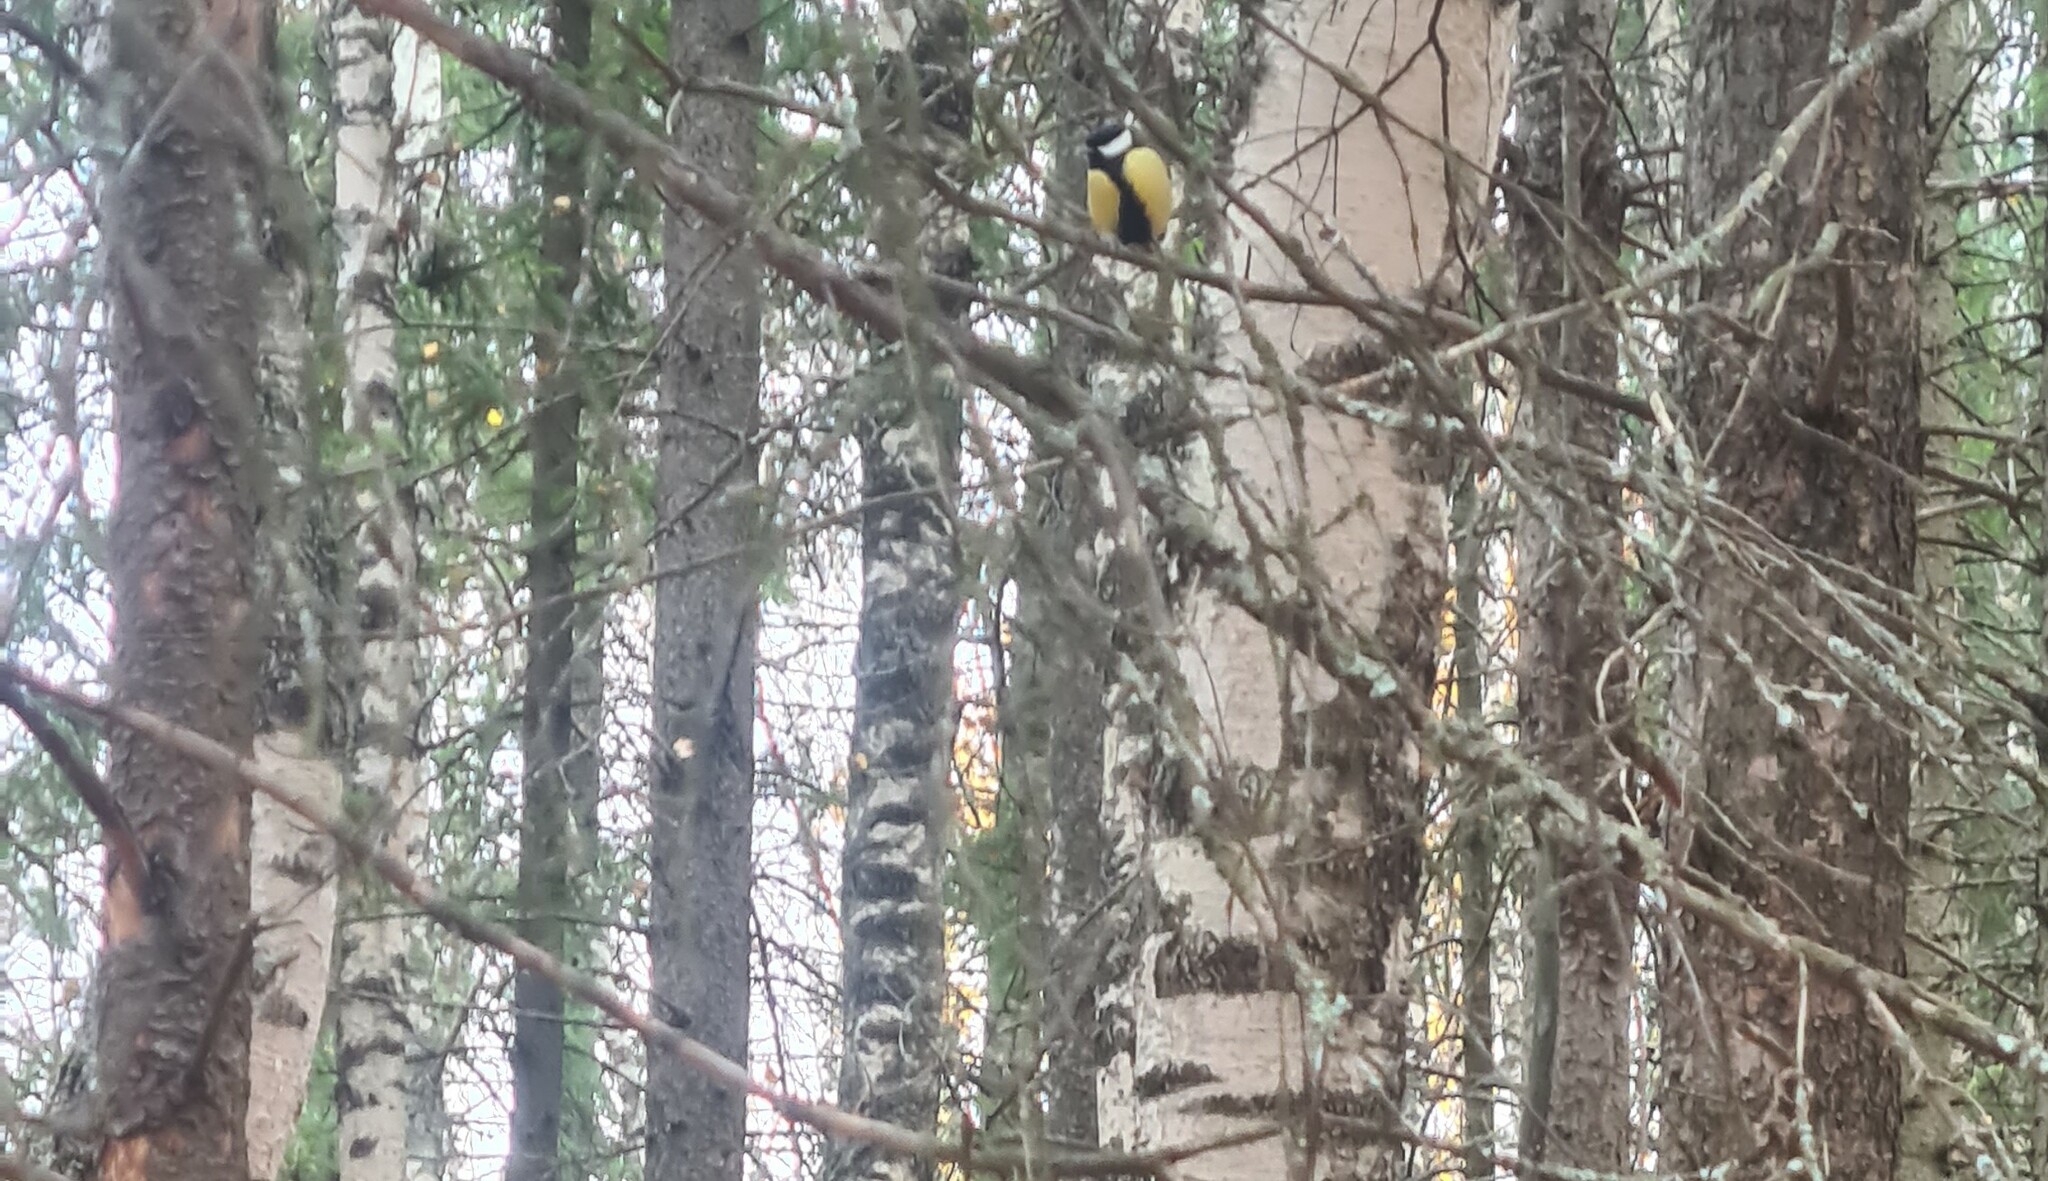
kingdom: Animalia
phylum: Chordata
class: Aves
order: Passeriformes
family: Paridae
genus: Parus
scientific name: Parus major
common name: Great tit
